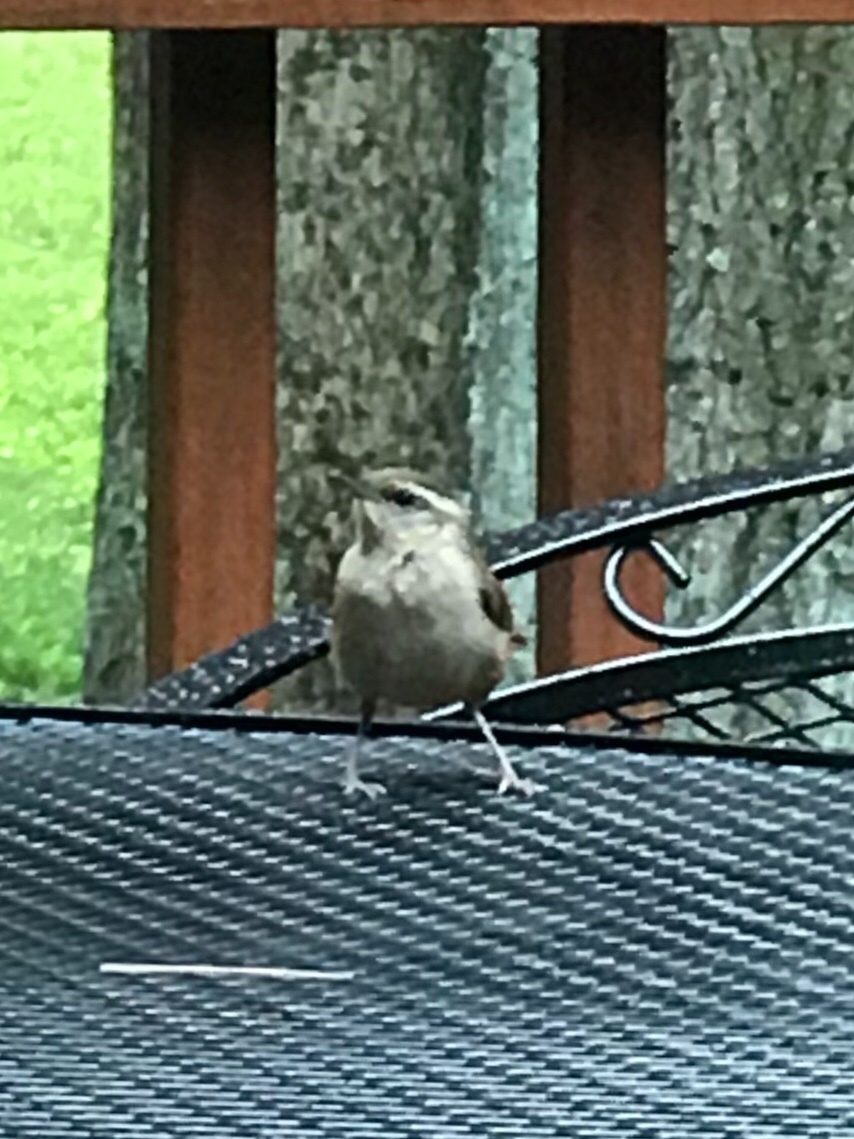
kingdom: Animalia
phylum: Chordata
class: Aves
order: Passeriformes
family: Troglodytidae
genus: Thryothorus
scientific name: Thryothorus ludovicianus
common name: Carolina wren
